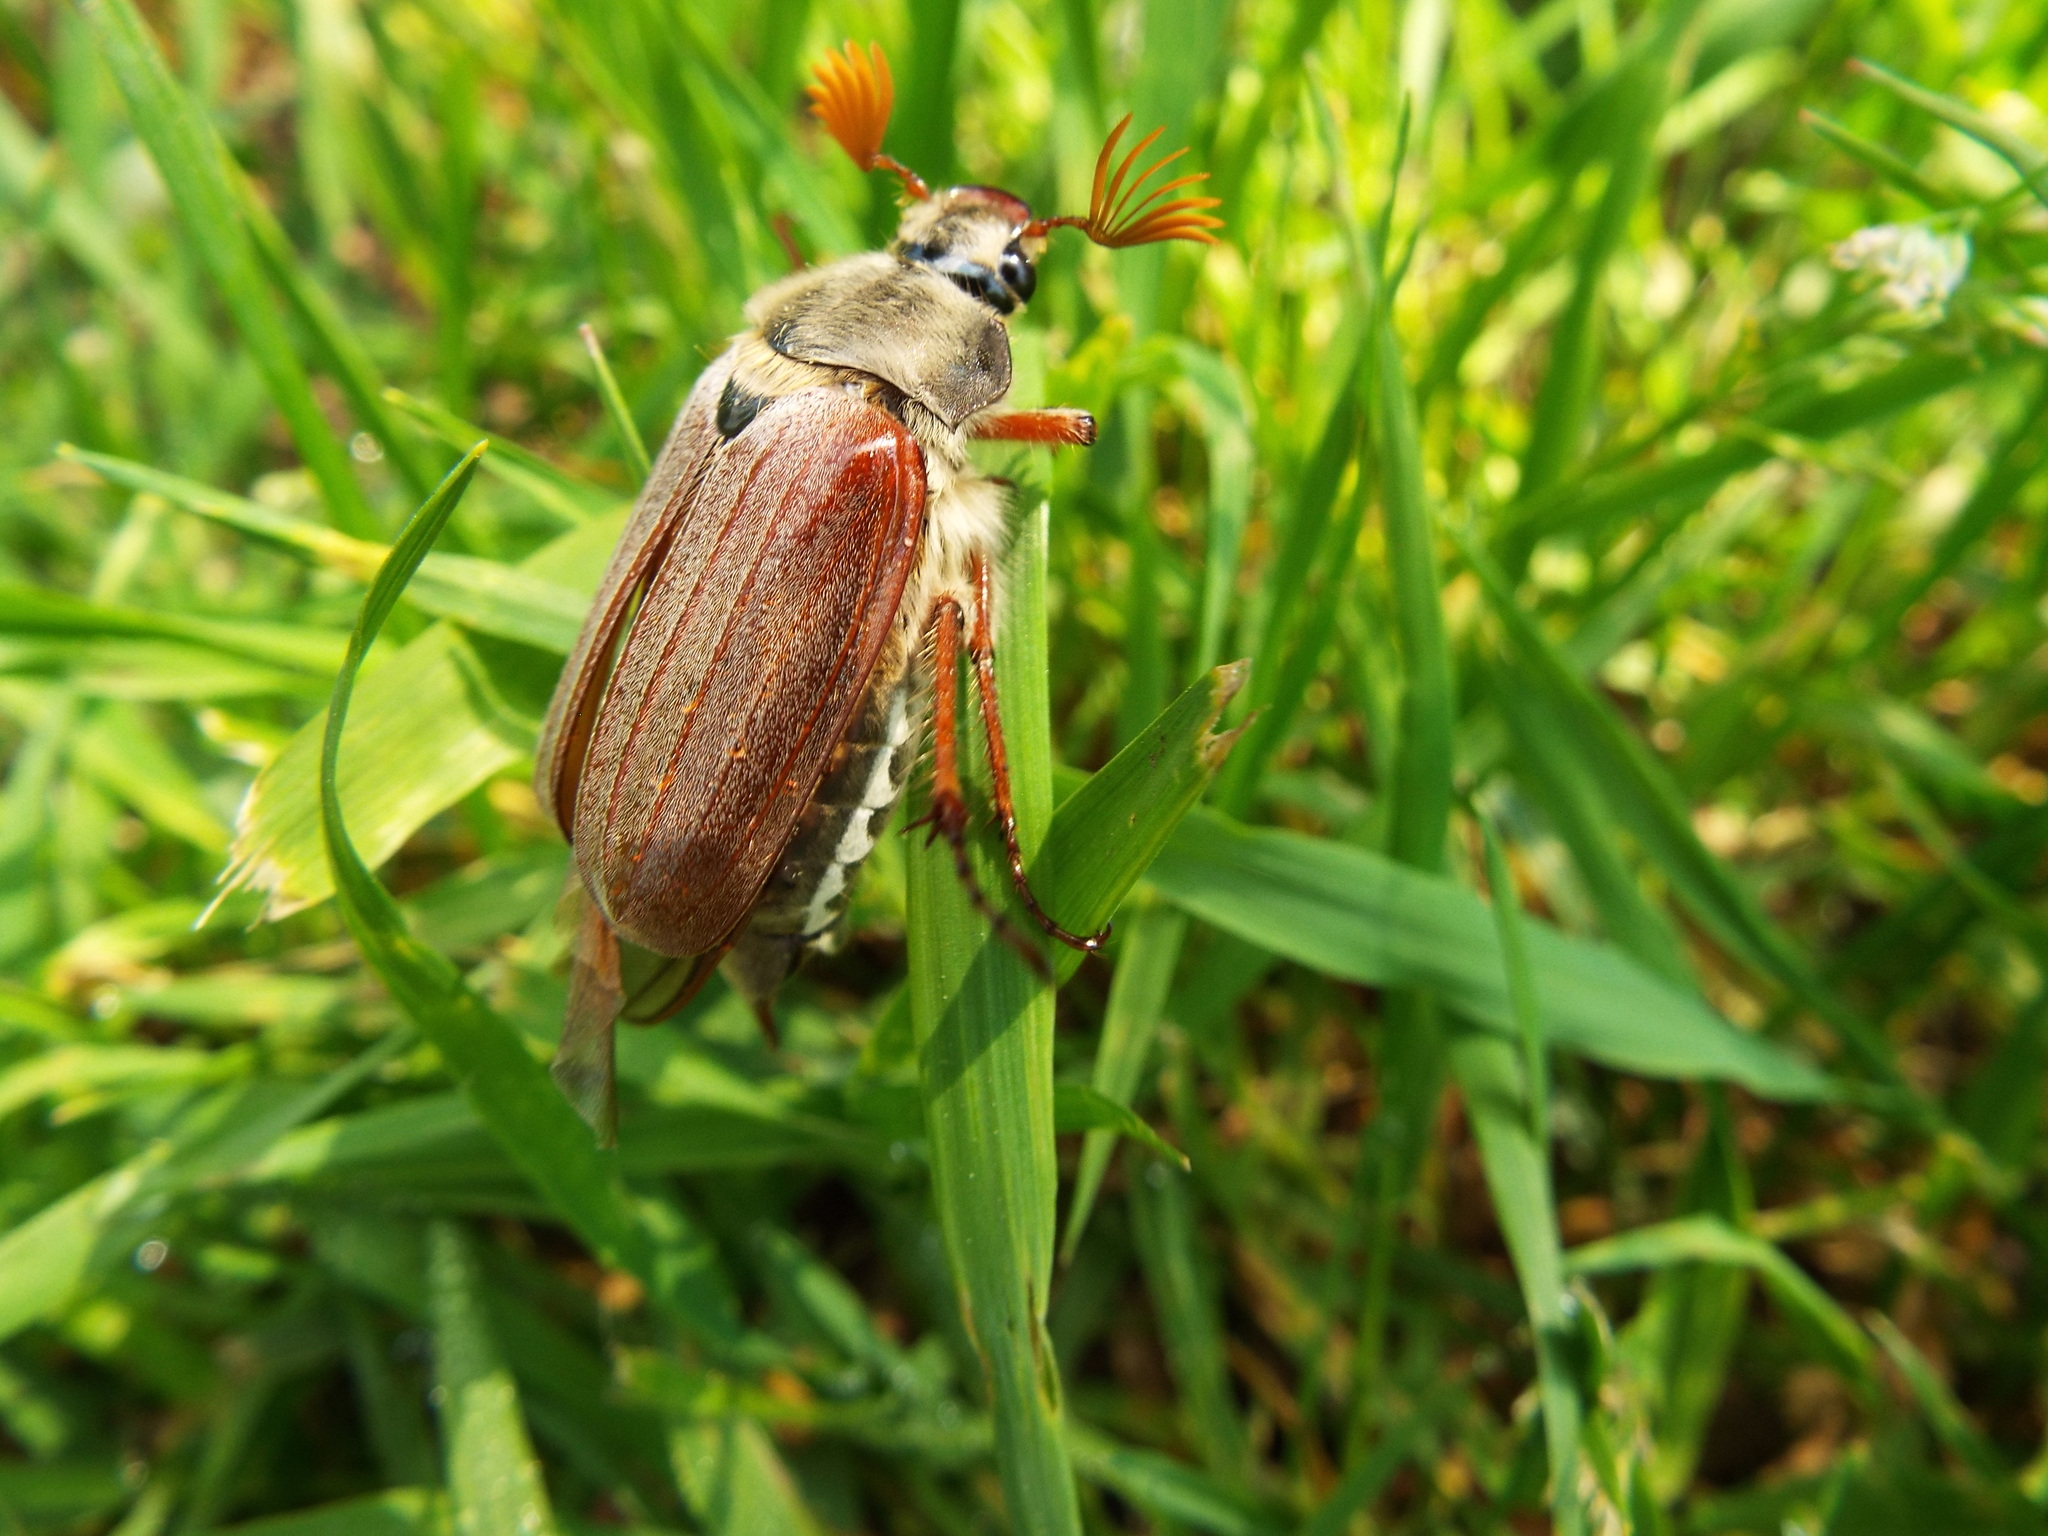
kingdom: Animalia
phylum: Arthropoda
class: Insecta
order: Coleoptera
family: Scarabaeidae
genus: Melolontha
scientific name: Melolontha melolontha
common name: Cockchafer maybeetle
